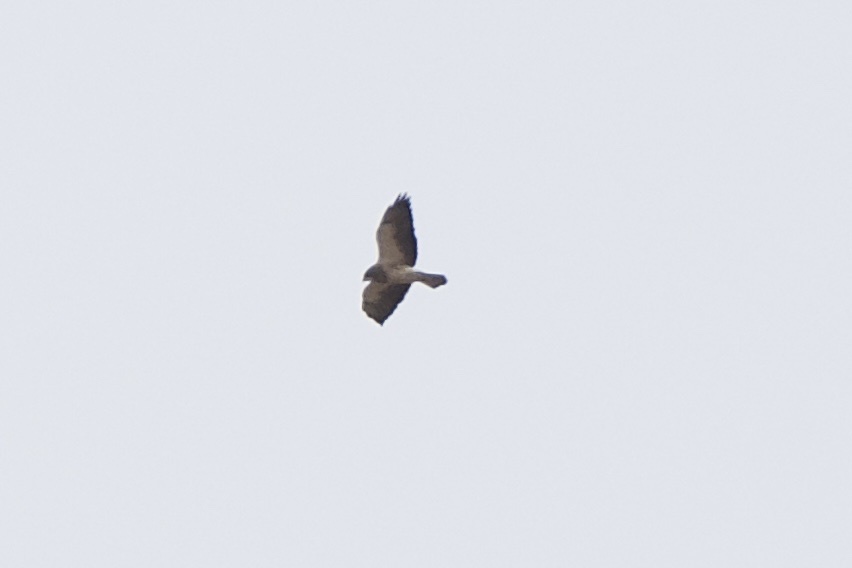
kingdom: Animalia
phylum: Chordata
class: Aves
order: Accipitriformes
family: Accipitridae
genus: Buteo
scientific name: Buteo swainsoni
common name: Swainson's hawk
